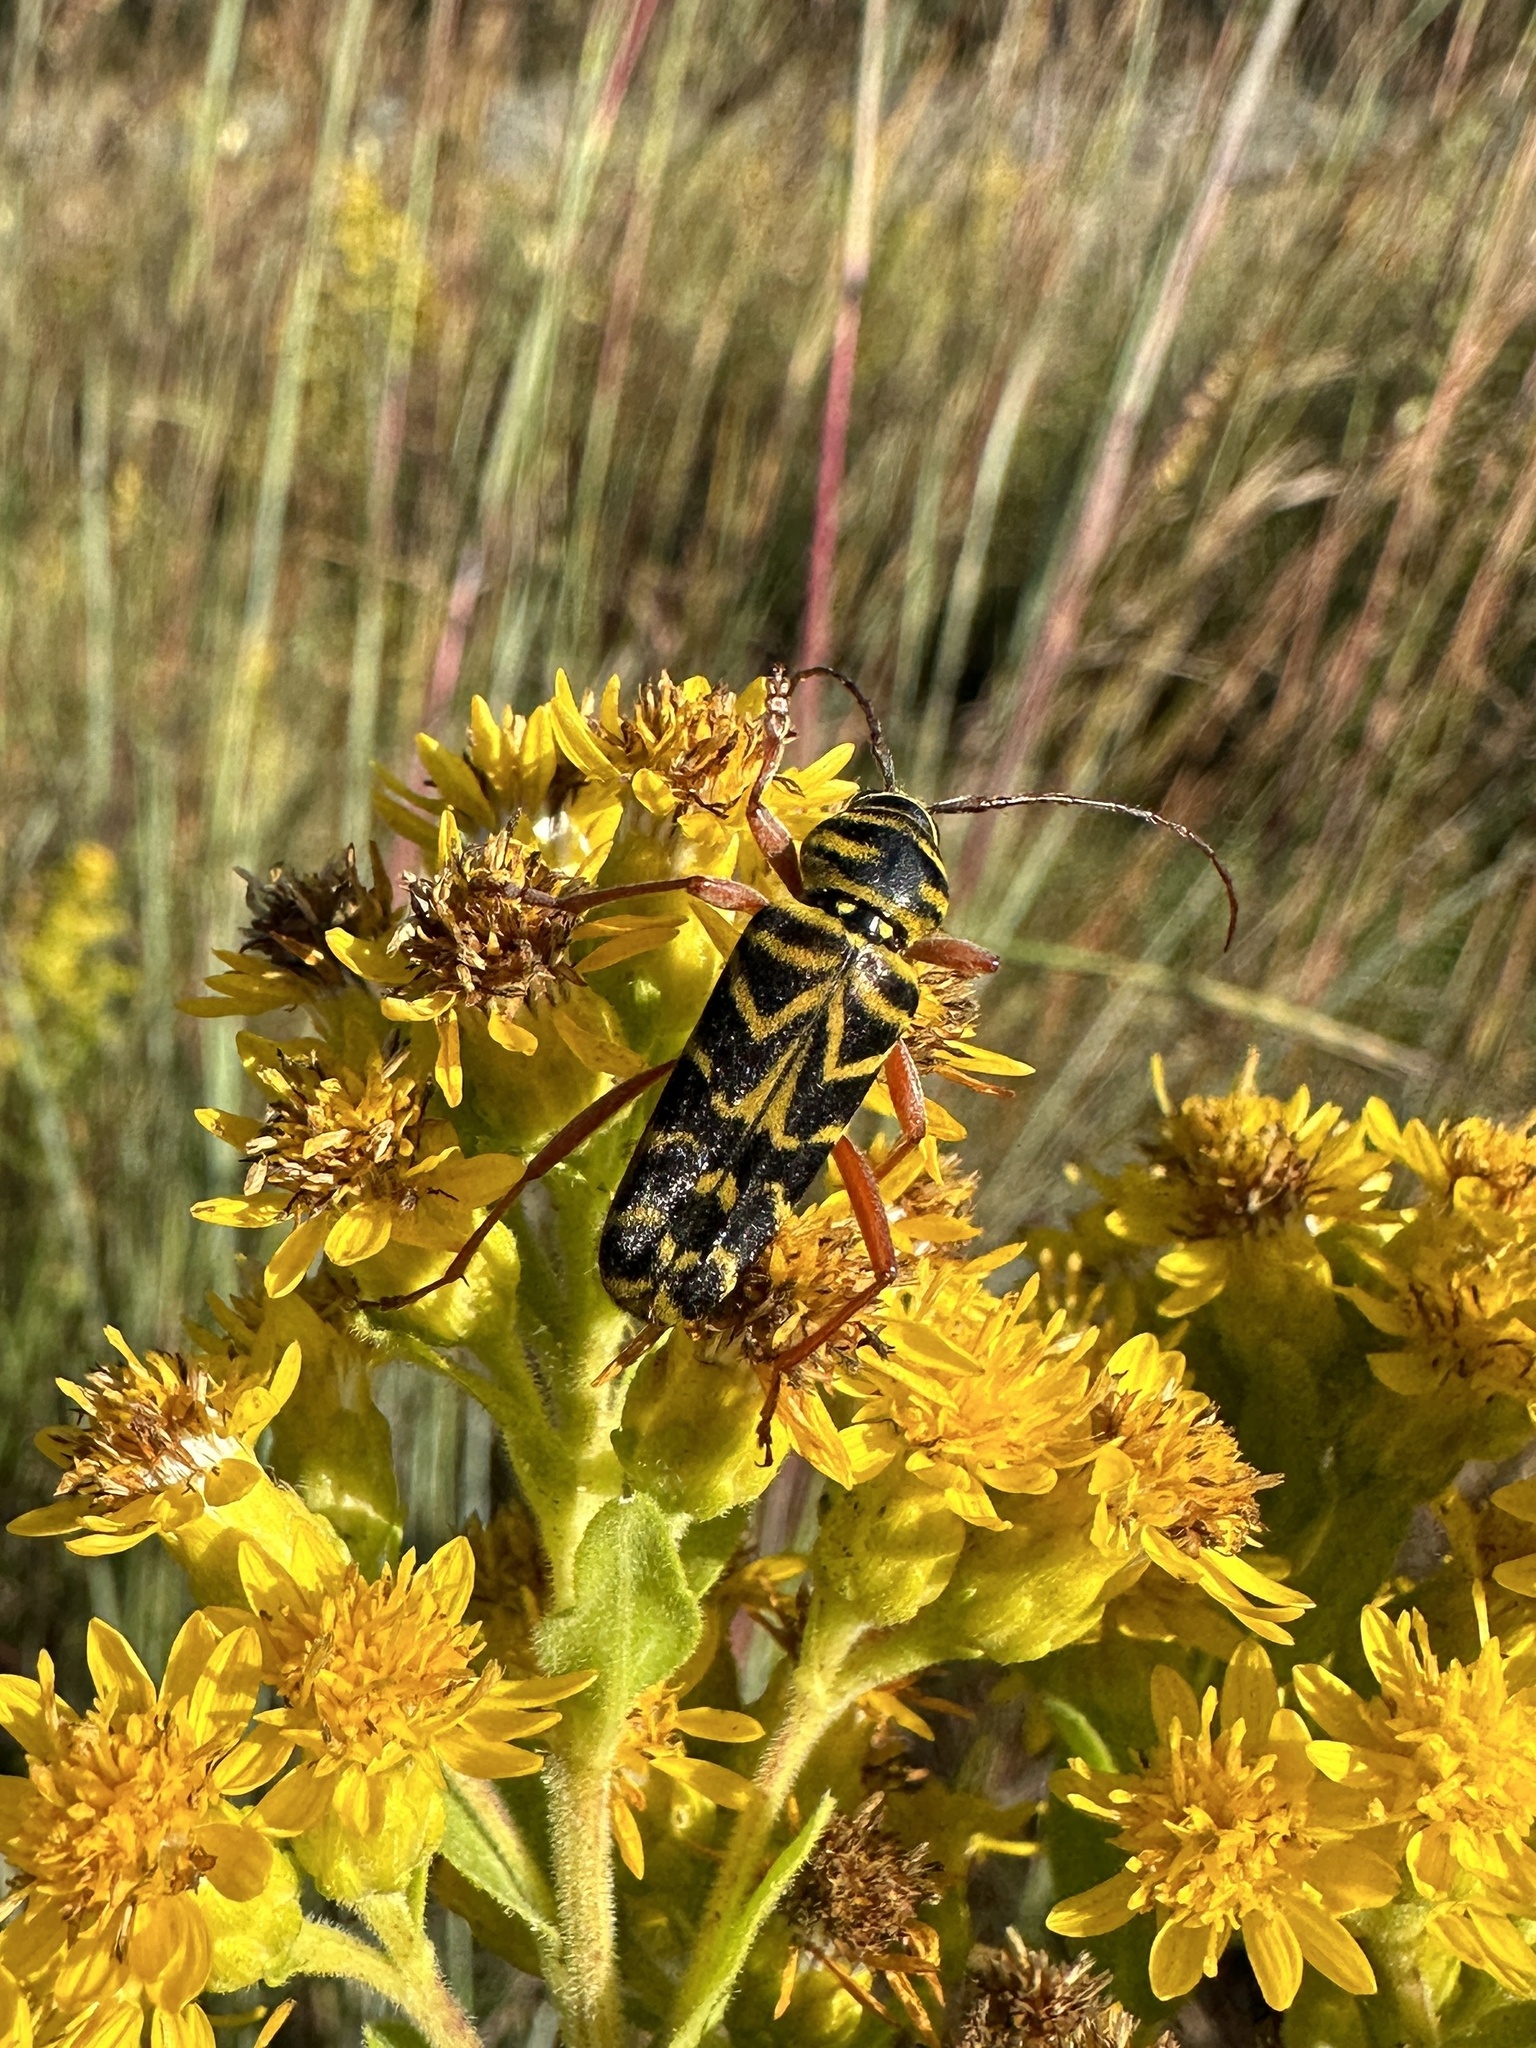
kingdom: Animalia
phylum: Arthropoda
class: Insecta
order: Coleoptera
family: Cerambycidae
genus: Megacyllene
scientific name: Megacyllene robiniae
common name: Locust borer
